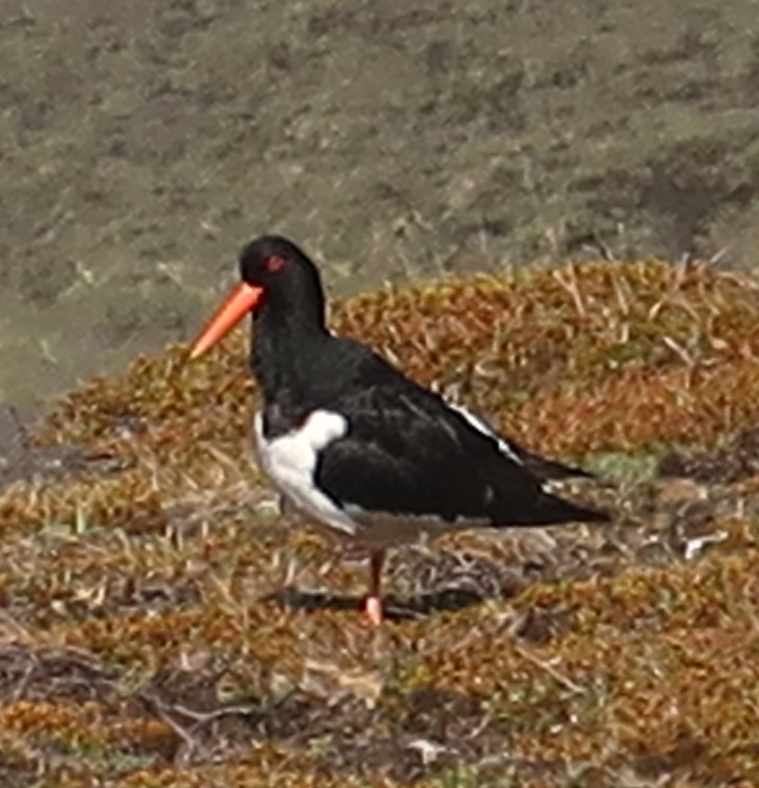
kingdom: Animalia
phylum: Chordata
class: Aves
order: Charadriiformes
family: Haematopodidae
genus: Haematopus
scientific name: Haematopus ostralegus
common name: Eurasian oystercatcher
